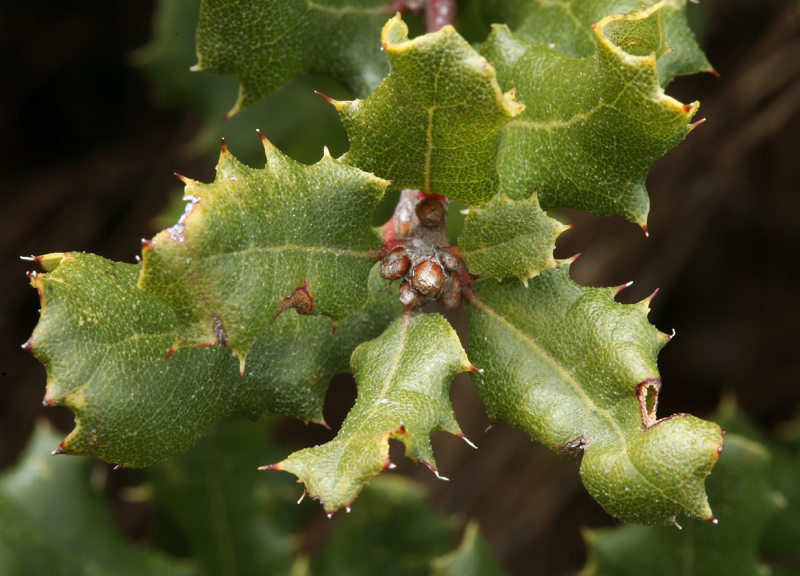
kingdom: Plantae
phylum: Tracheophyta
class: Magnoliopsida
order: Fagales
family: Fagaceae
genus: Quercus
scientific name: Quercus durata
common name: Leather oak
